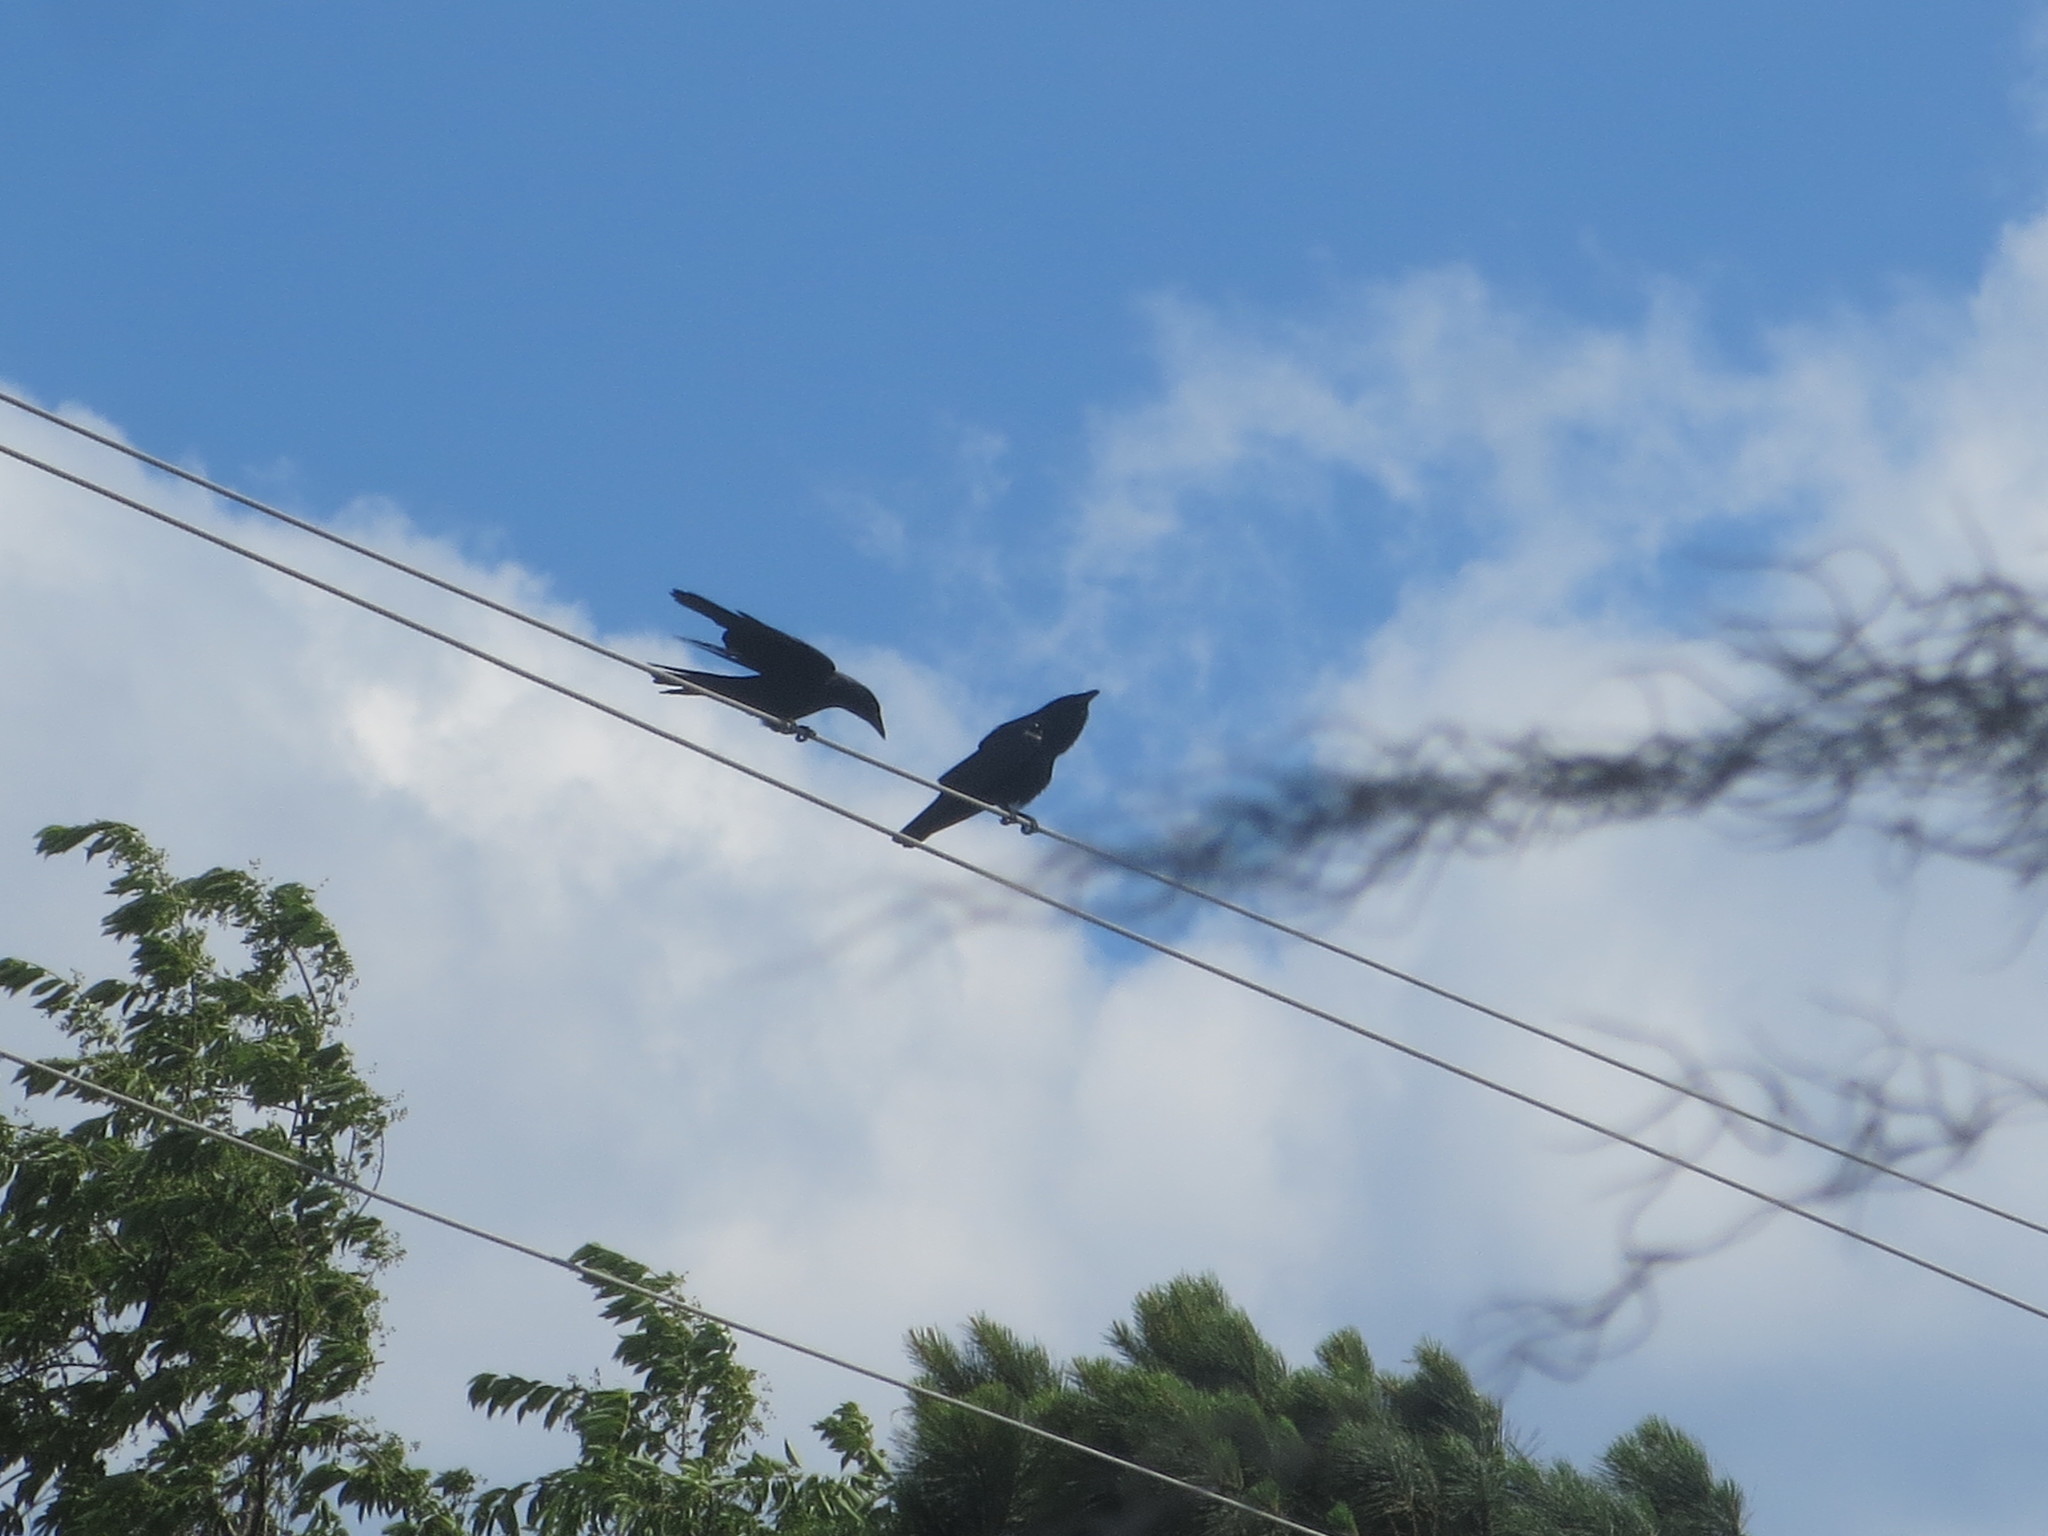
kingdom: Animalia
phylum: Chordata
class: Aves
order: Passeriformes
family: Corvidae
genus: Corvus
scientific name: Corvus brachyrhynchos
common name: American crow
